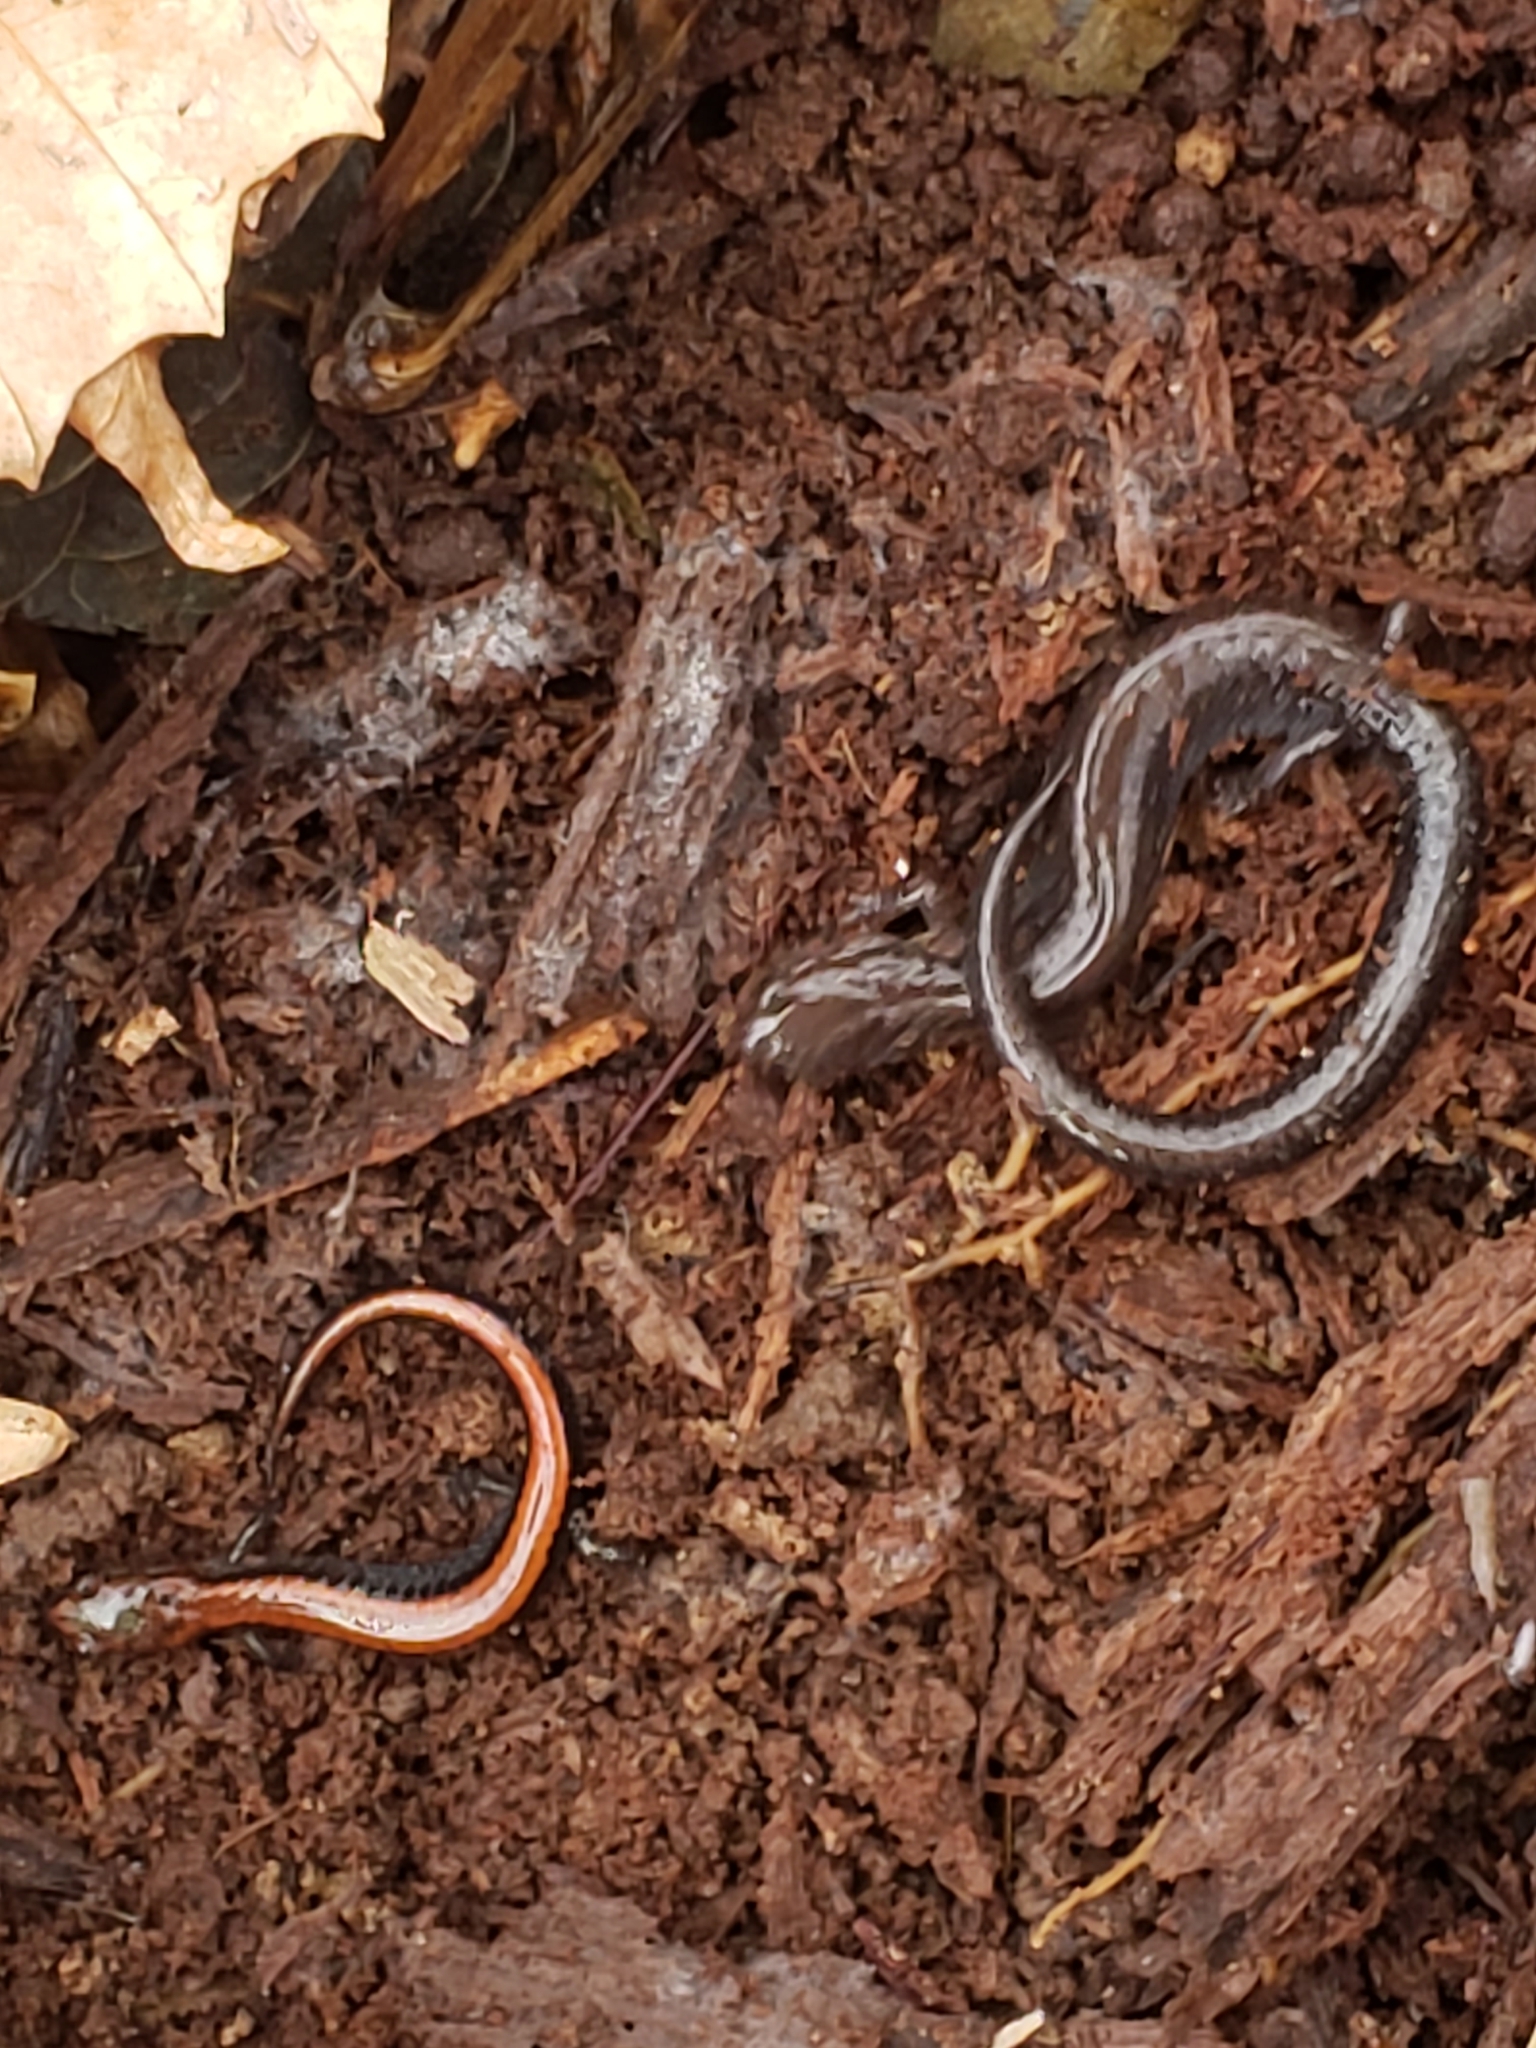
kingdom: Animalia
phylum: Chordata
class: Amphibia
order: Caudata
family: Plethodontidae
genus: Plethodon
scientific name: Plethodon cinereus
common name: Redback salamander
